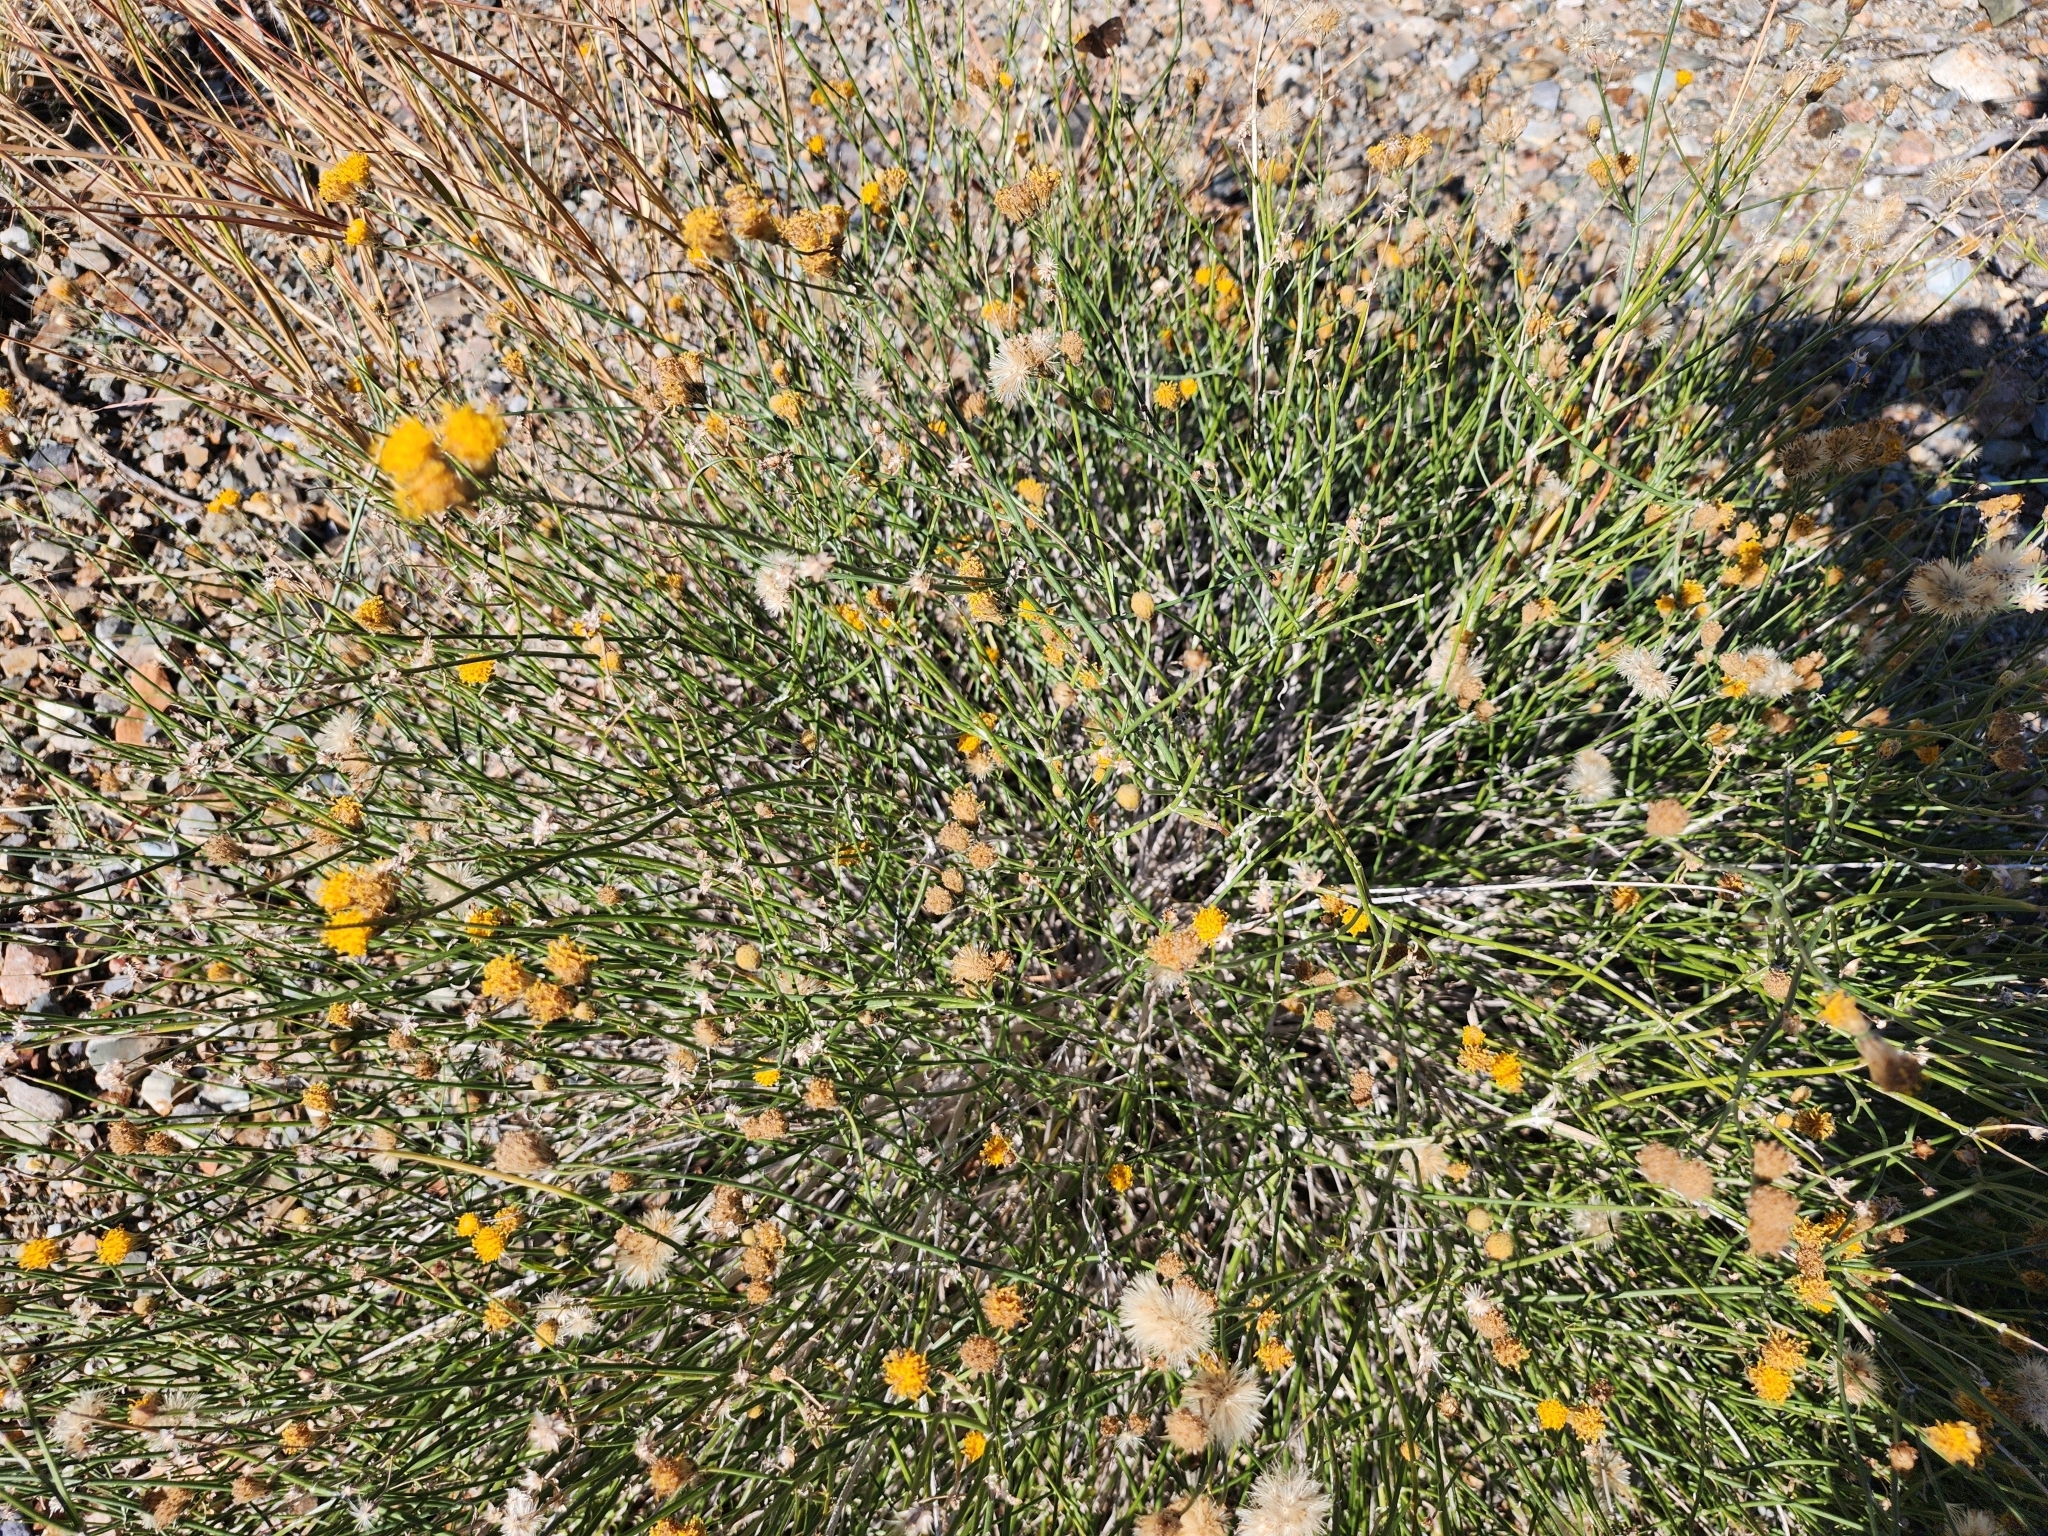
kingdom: Plantae
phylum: Tracheophyta
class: Magnoliopsida
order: Asterales
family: Asteraceae
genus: Bebbia
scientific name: Bebbia juncea
